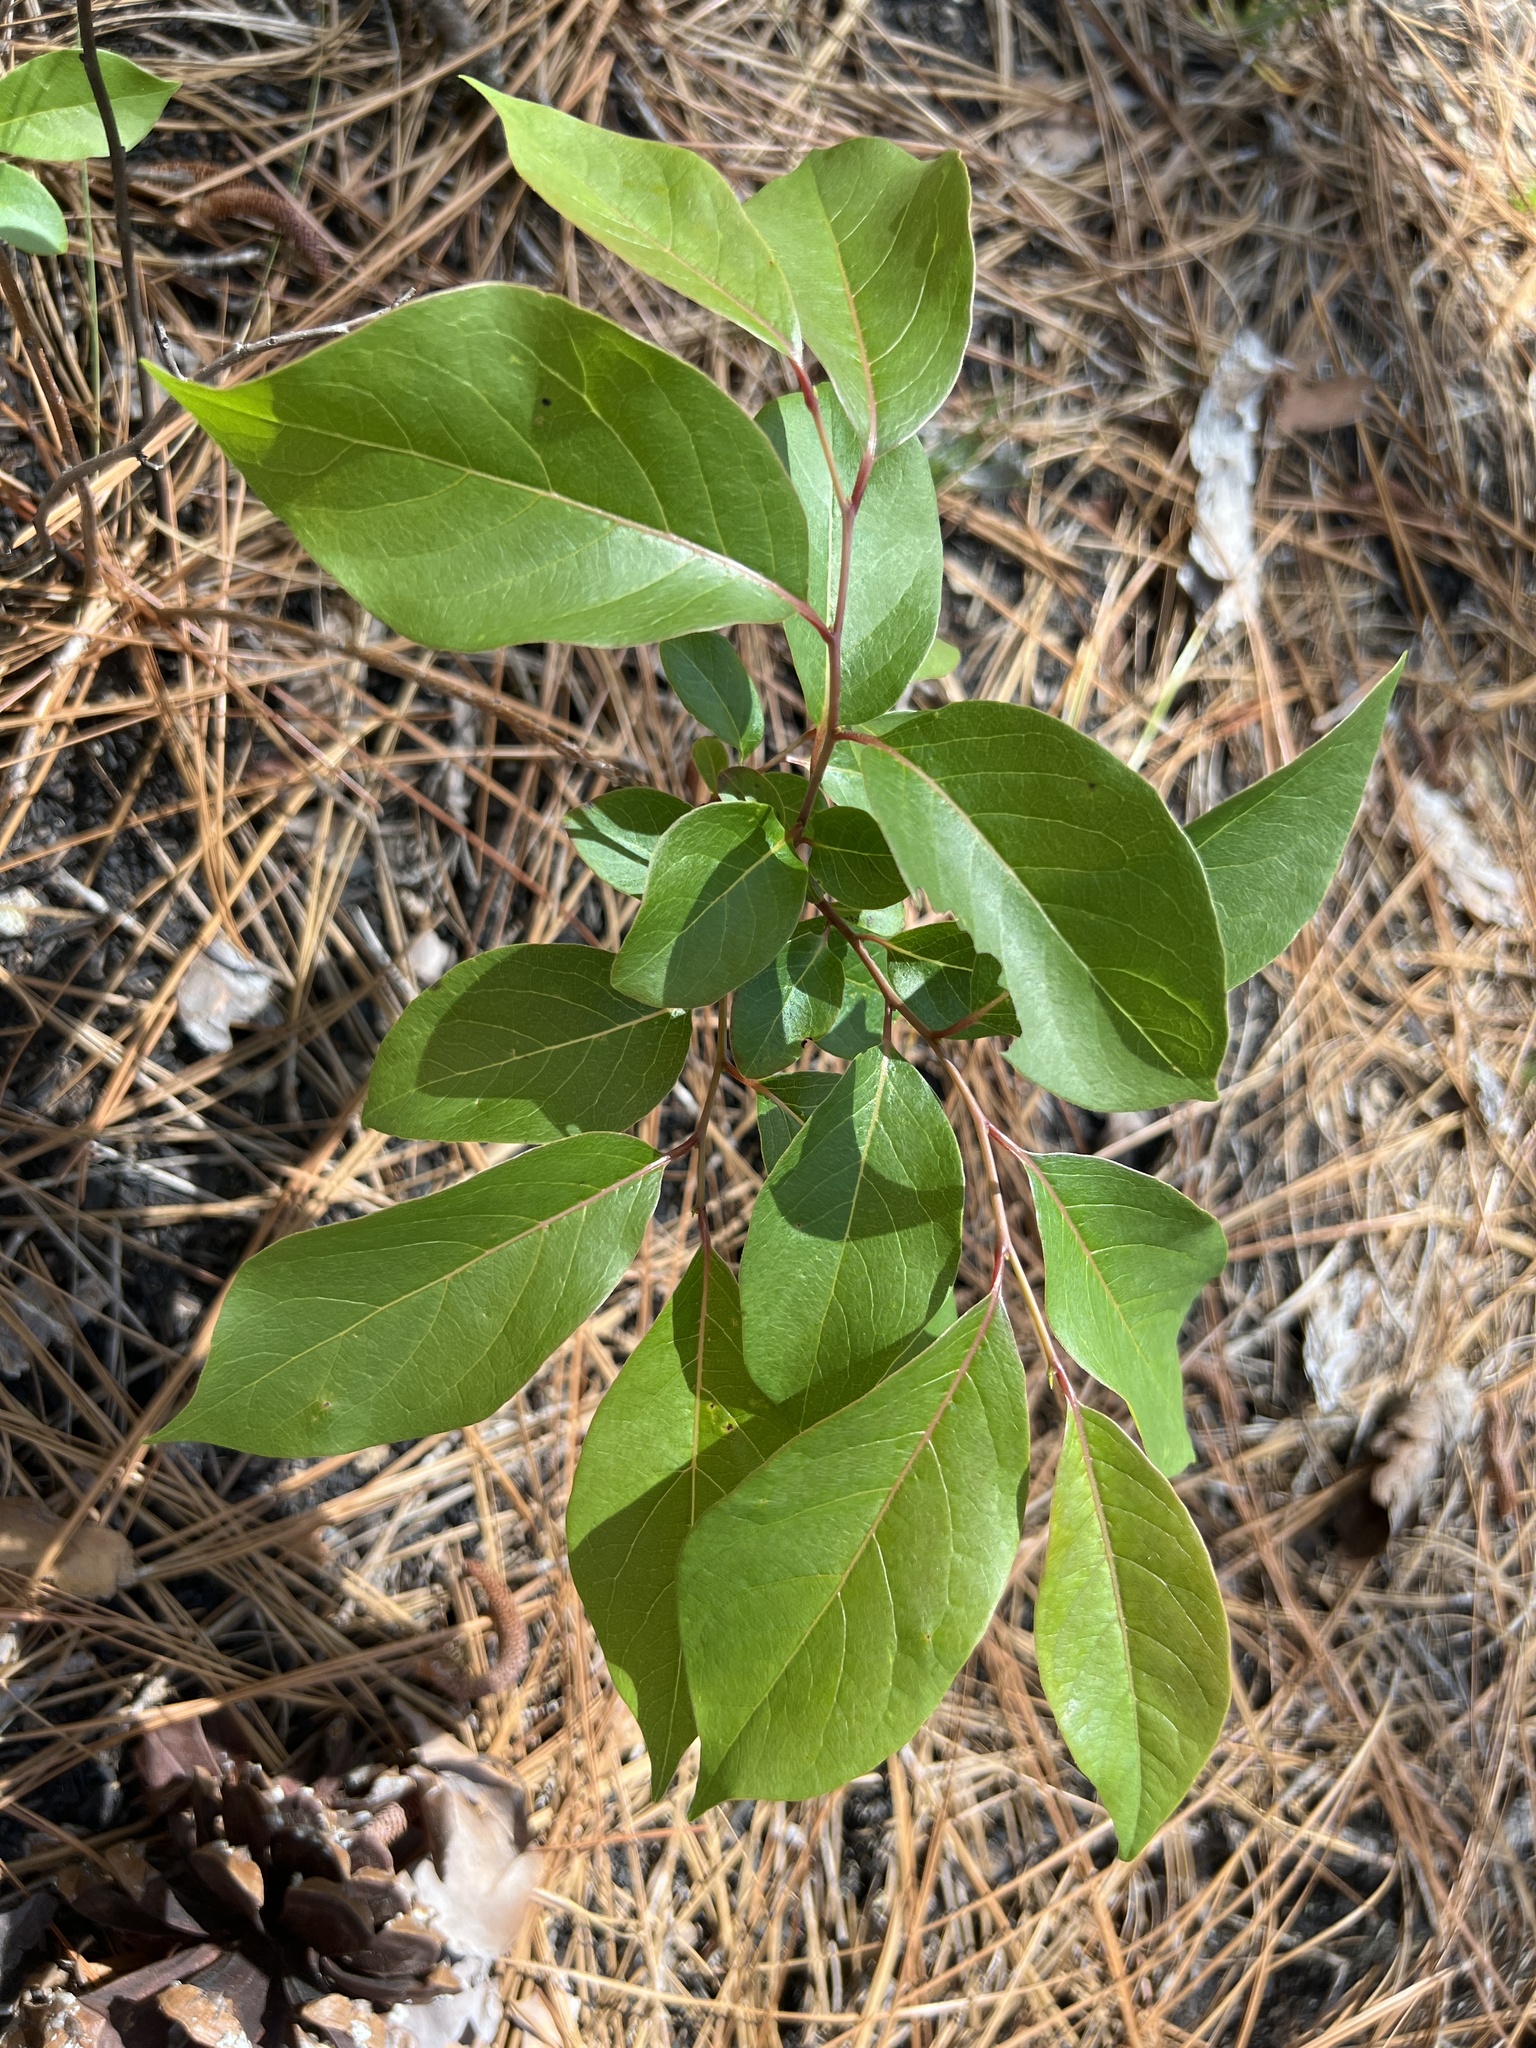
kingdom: Plantae
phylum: Tracheophyta
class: Magnoliopsida
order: Ericales
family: Ebenaceae
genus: Diospyros
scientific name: Diospyros virginiana
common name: Persimmon
